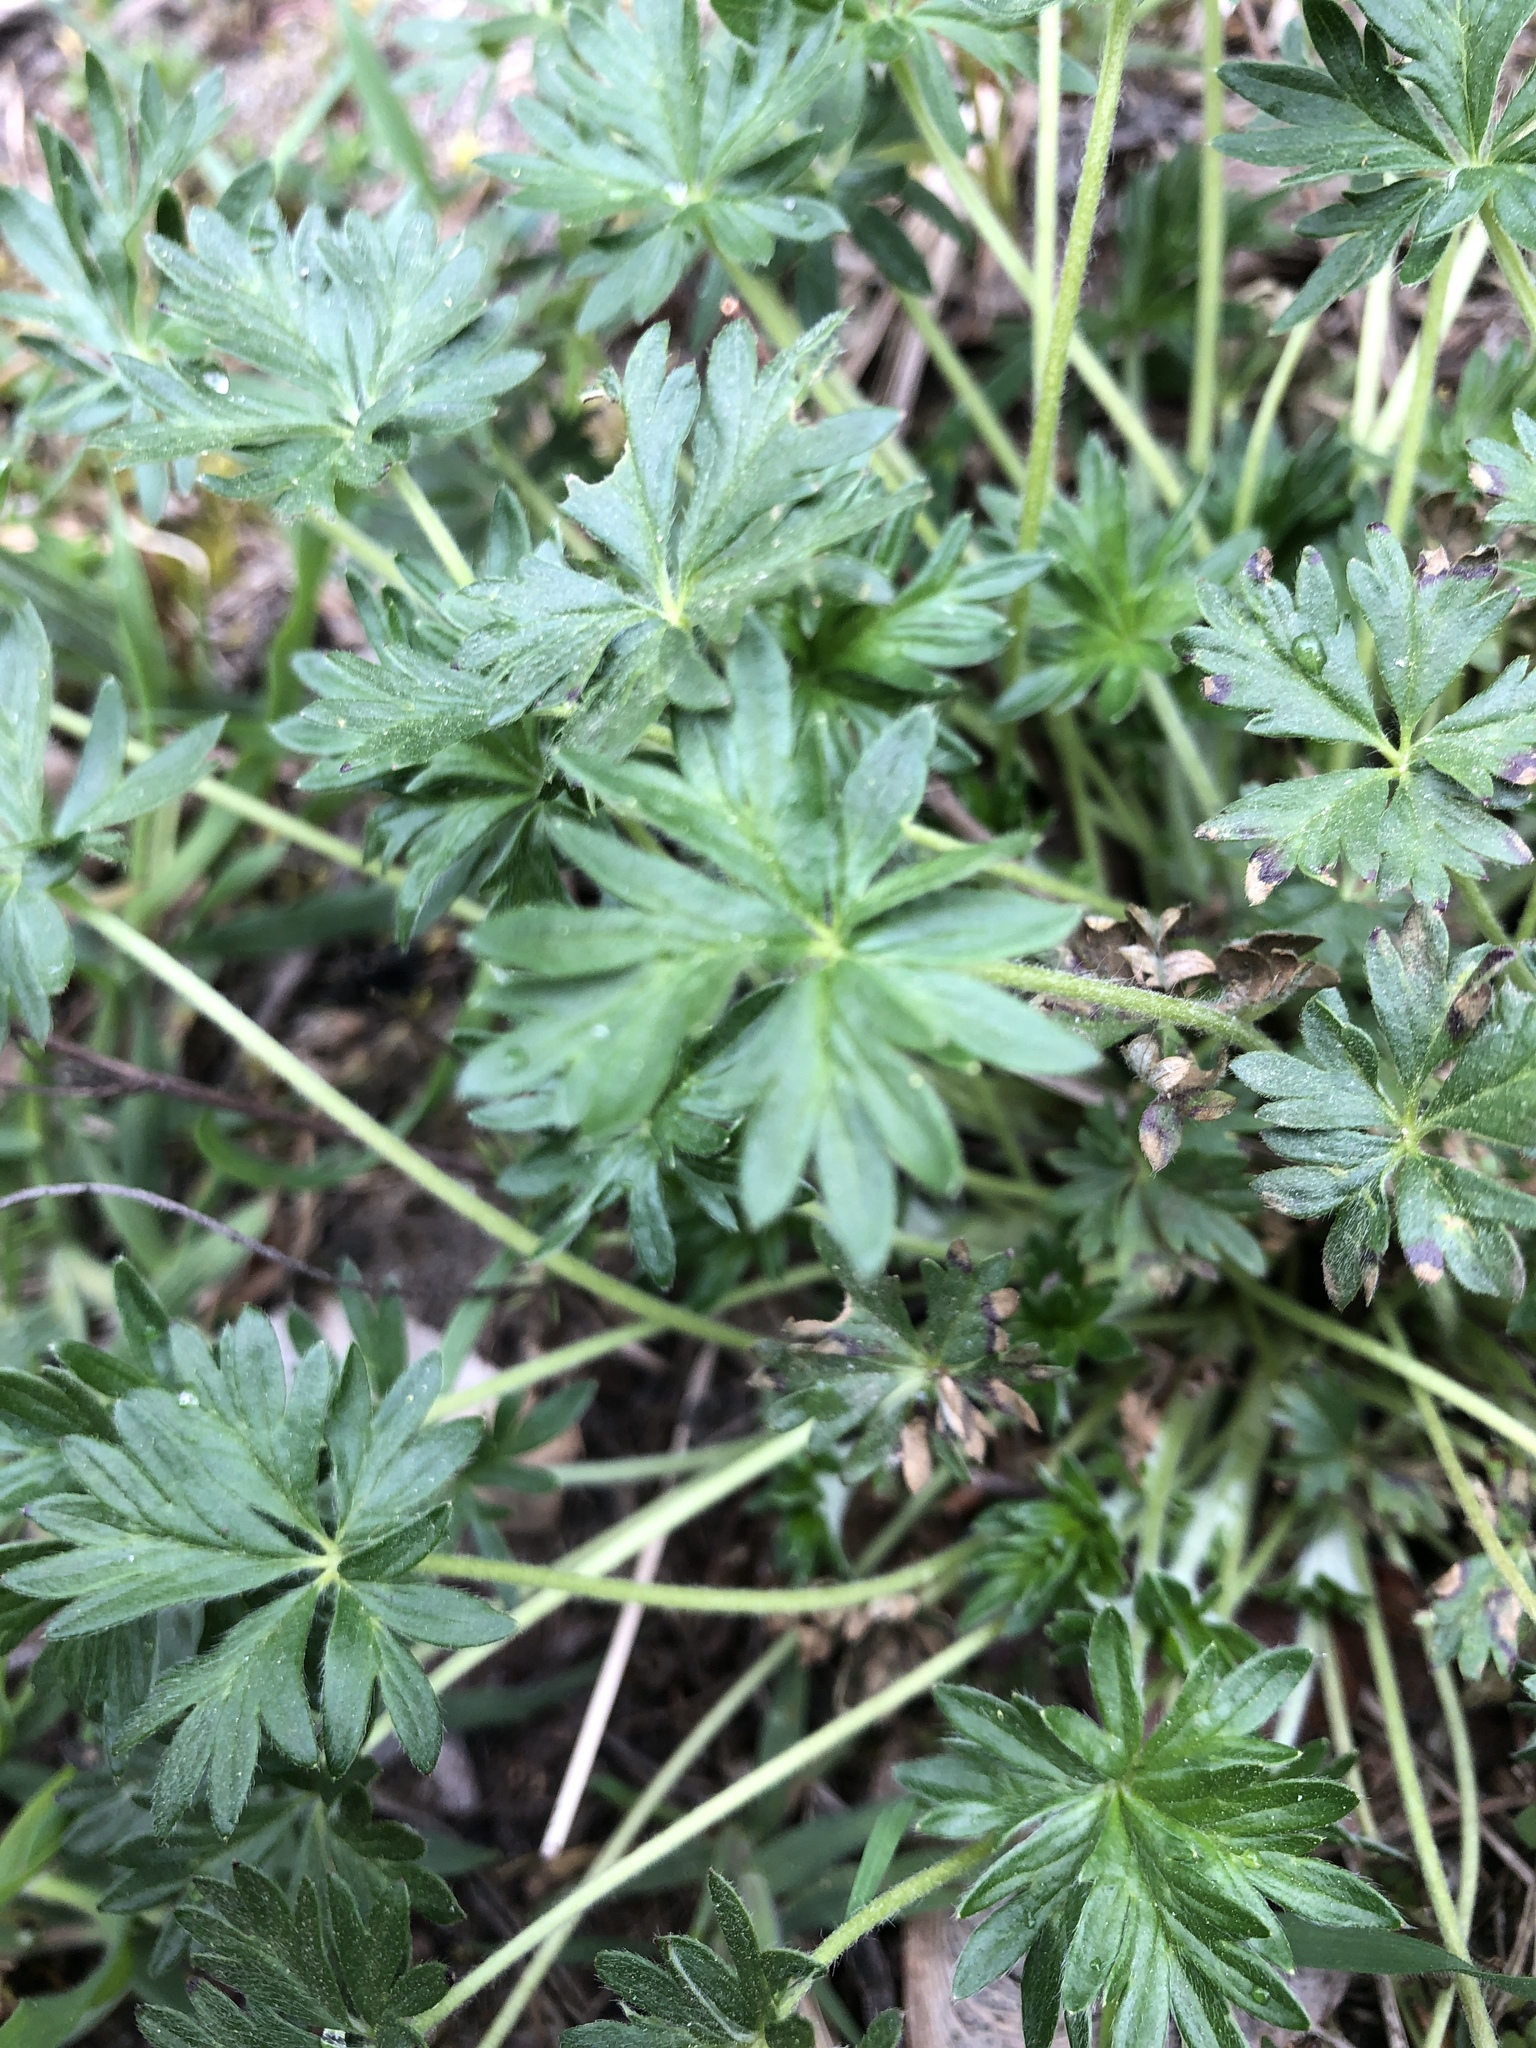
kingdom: Plantae
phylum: Tracheophyta
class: Magnoliopsida
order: Geraniales
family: Geraniaceae
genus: Geranium
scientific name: Geranium molle
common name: Dove's-foot crane's-bill
